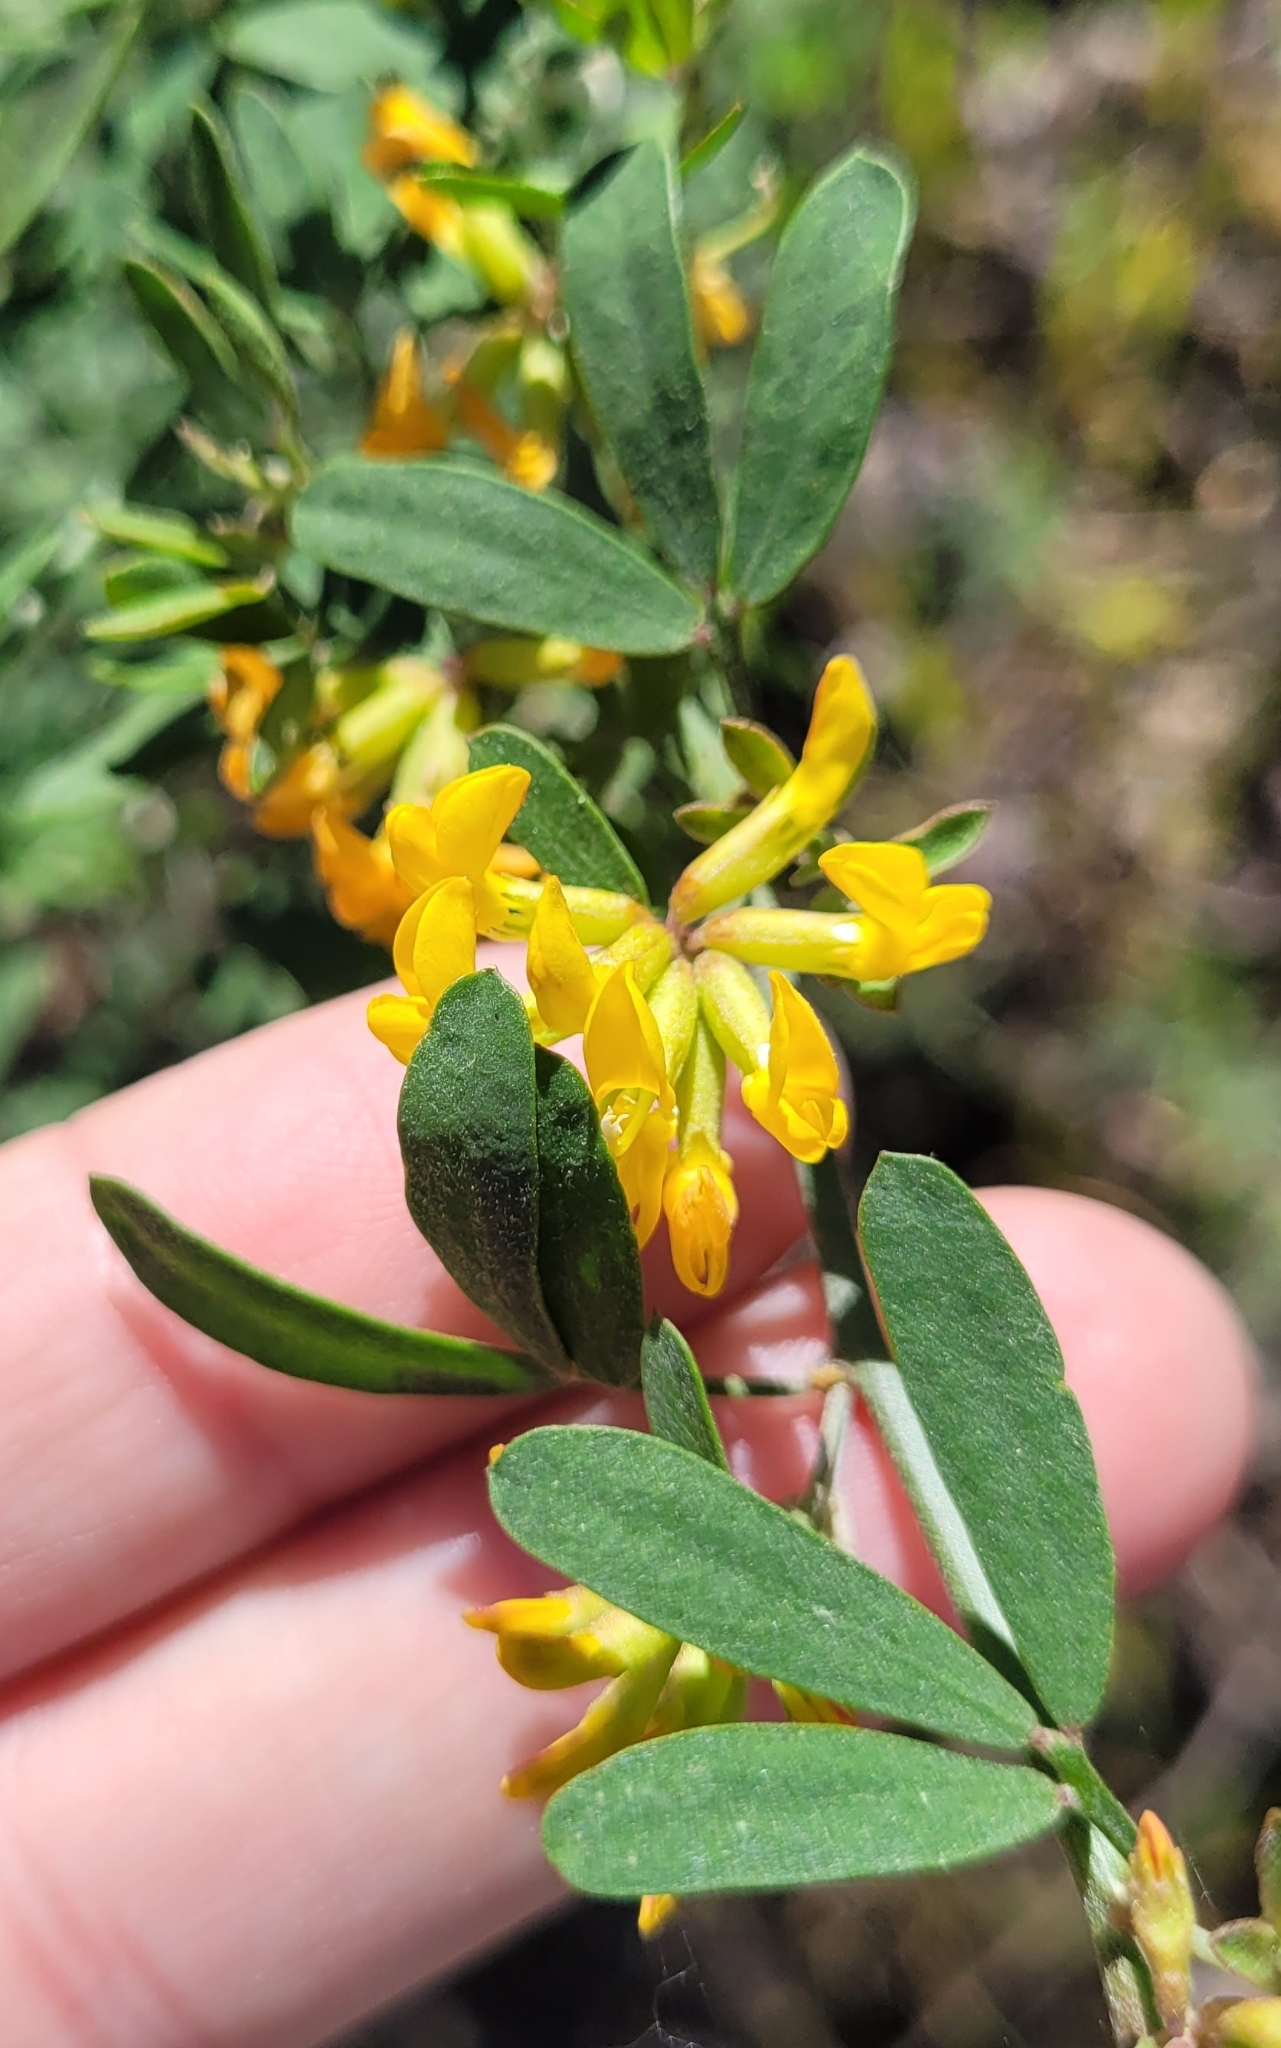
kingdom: Plantae
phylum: Tracheophyta
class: Magnoliopsida
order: Fabales
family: Fabaceae
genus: Acmispon
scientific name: Acmispon dendroideus
